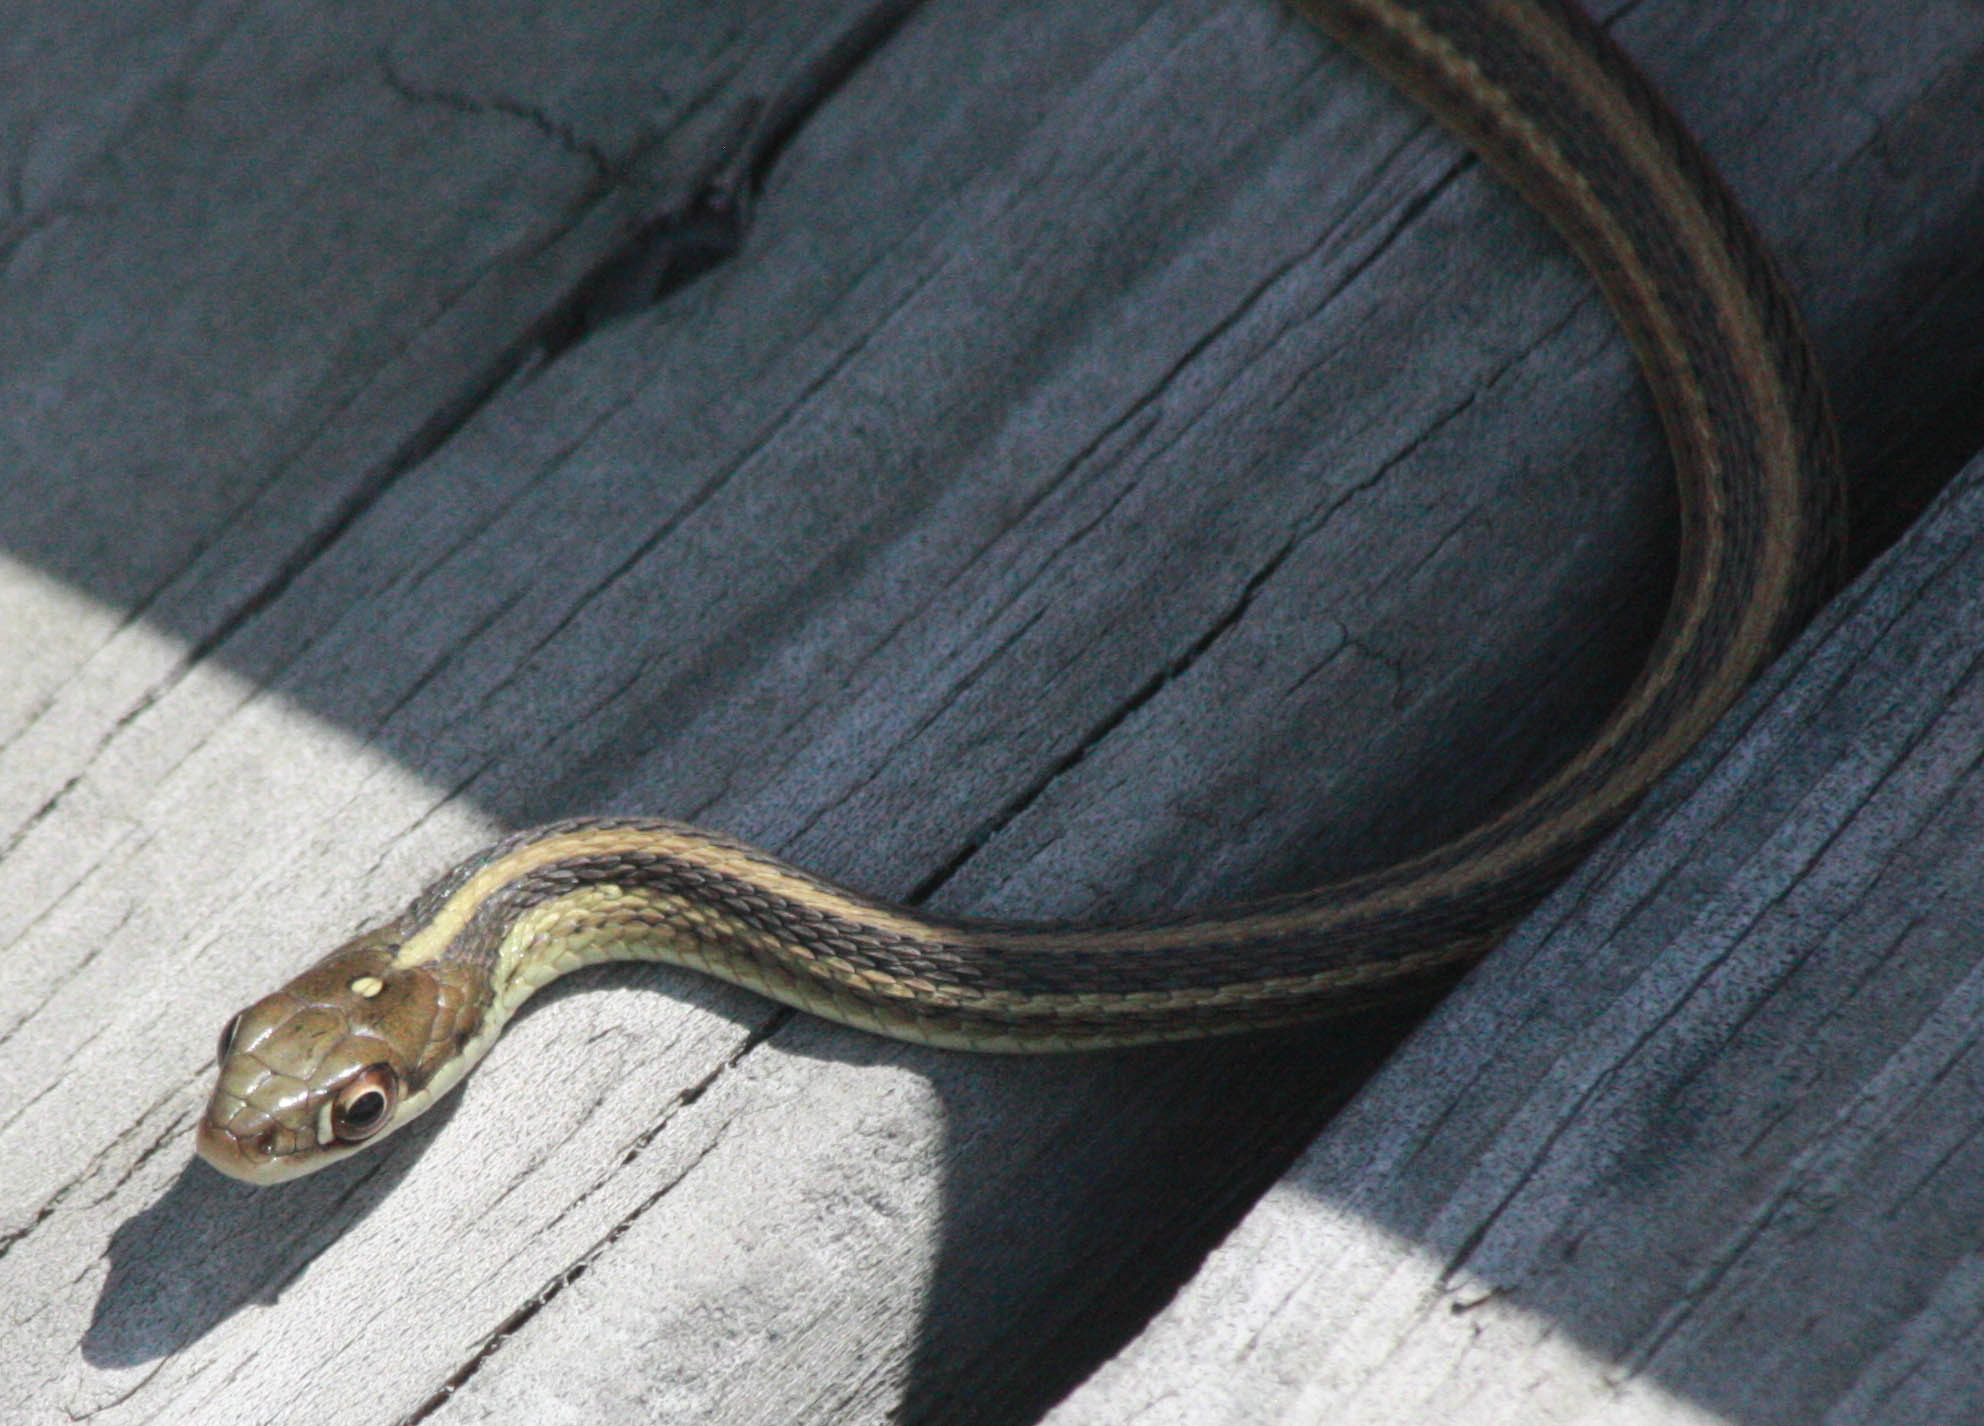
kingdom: Animalia
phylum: Chordata
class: Squamata
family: Colubridae
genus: Thamnophis
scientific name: Thamnophis proximus
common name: Western ribbon snake
